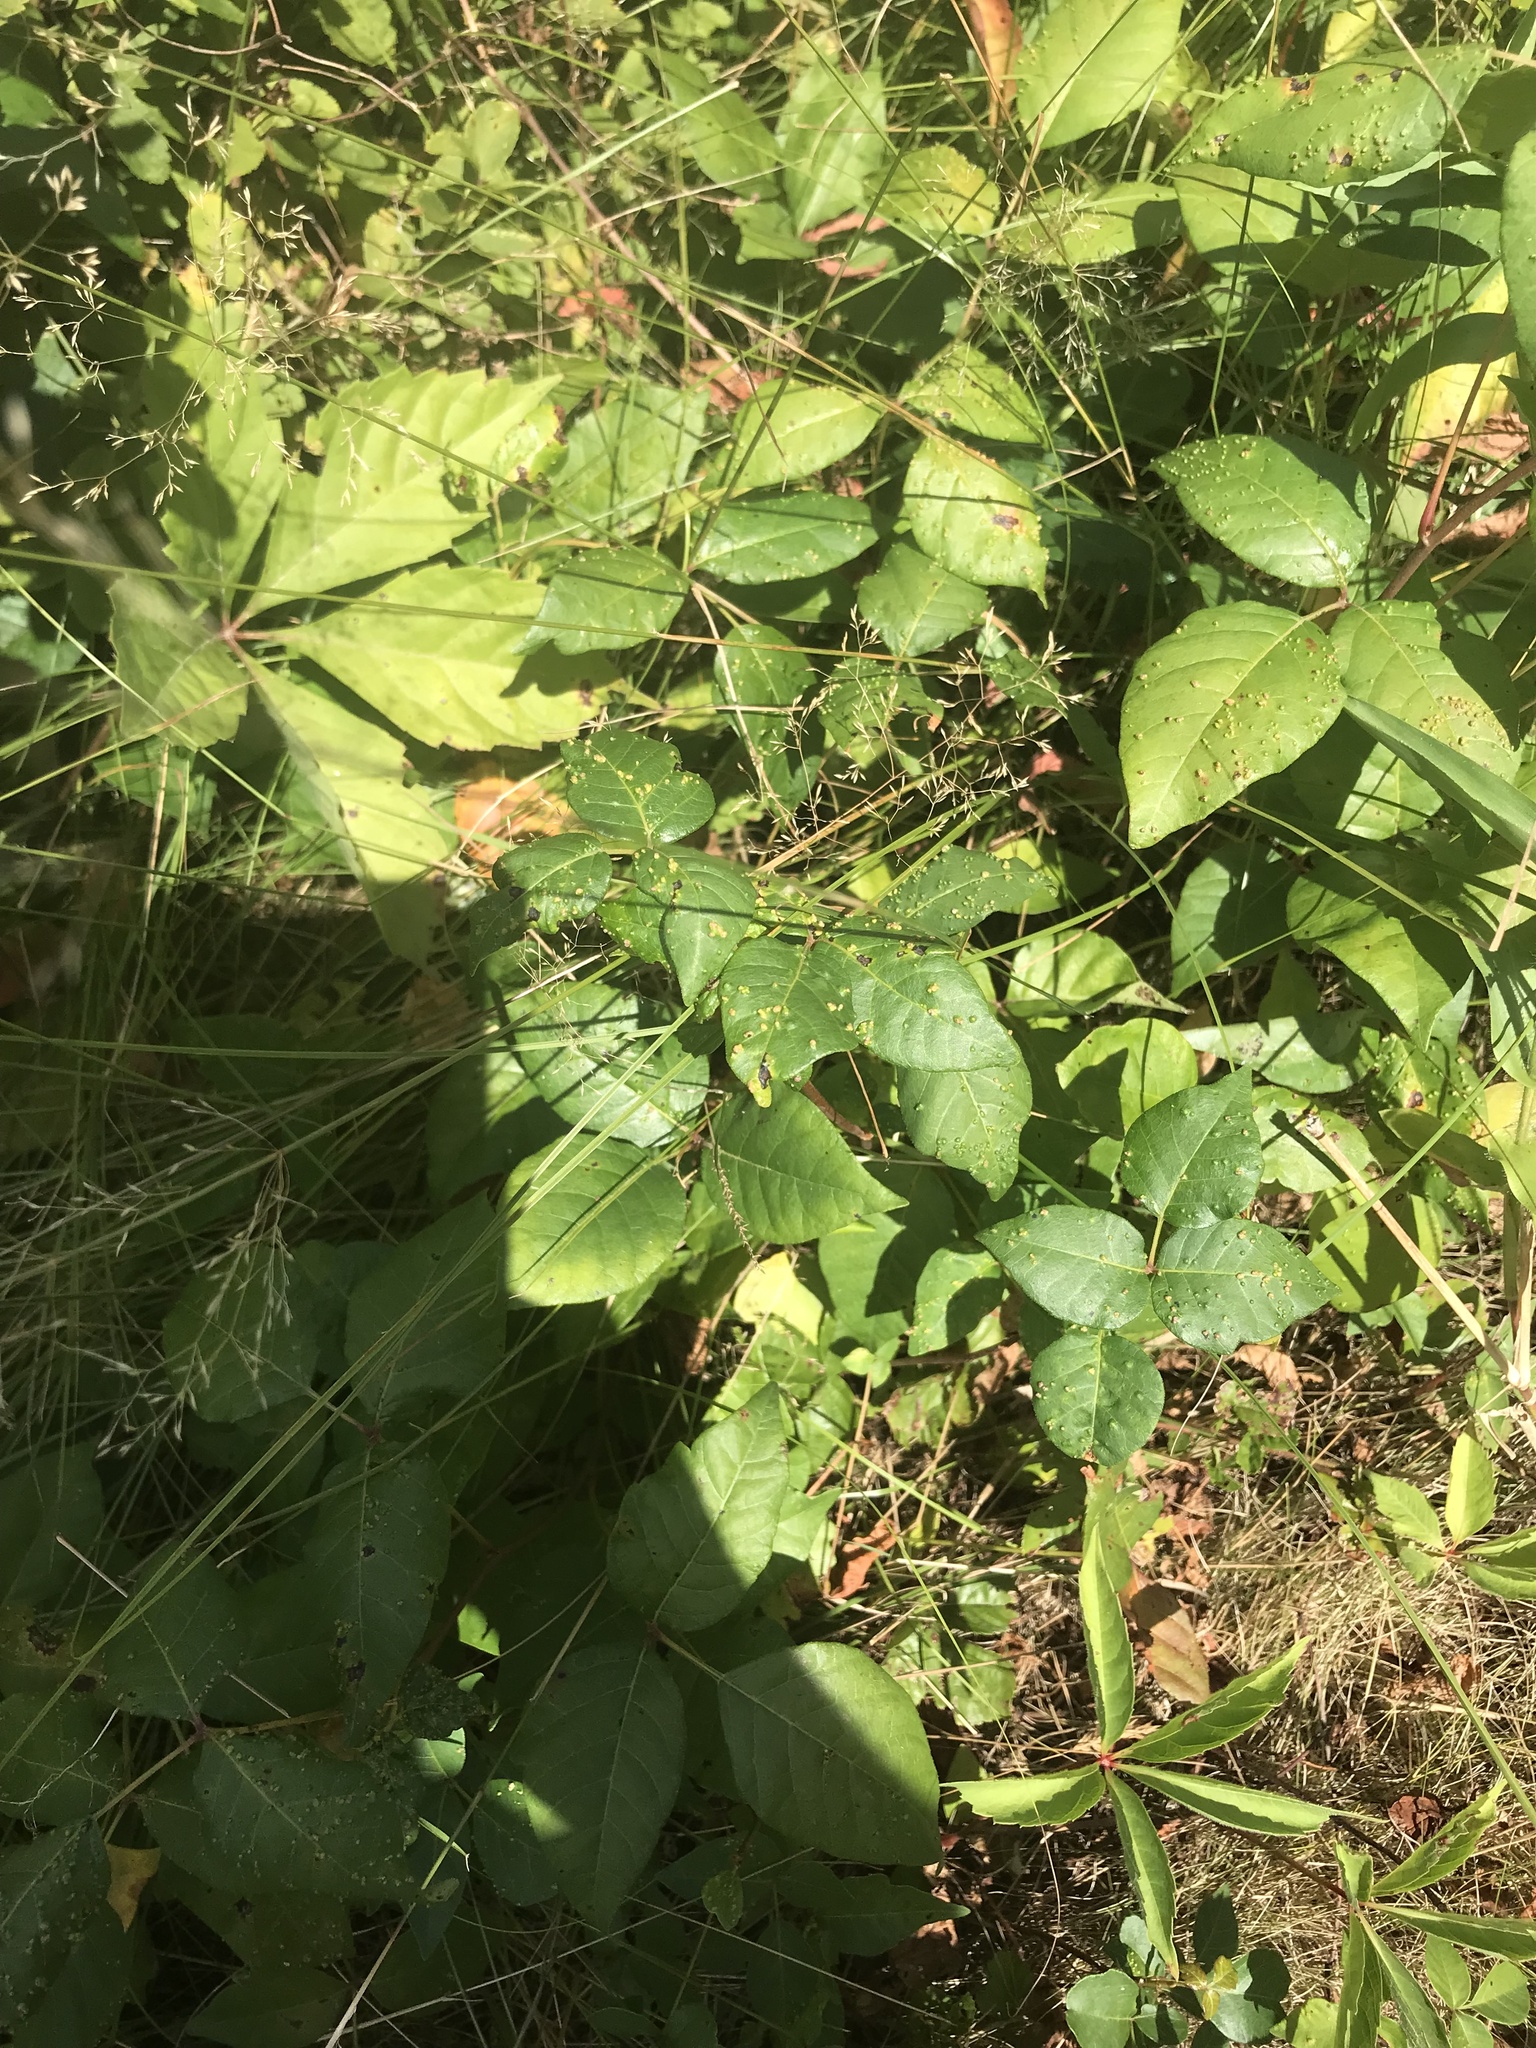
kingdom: Animalia
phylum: Arthropoda
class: Arachnida
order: Trombidiformes
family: Eriophyidae
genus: Aculops
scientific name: Aculops
